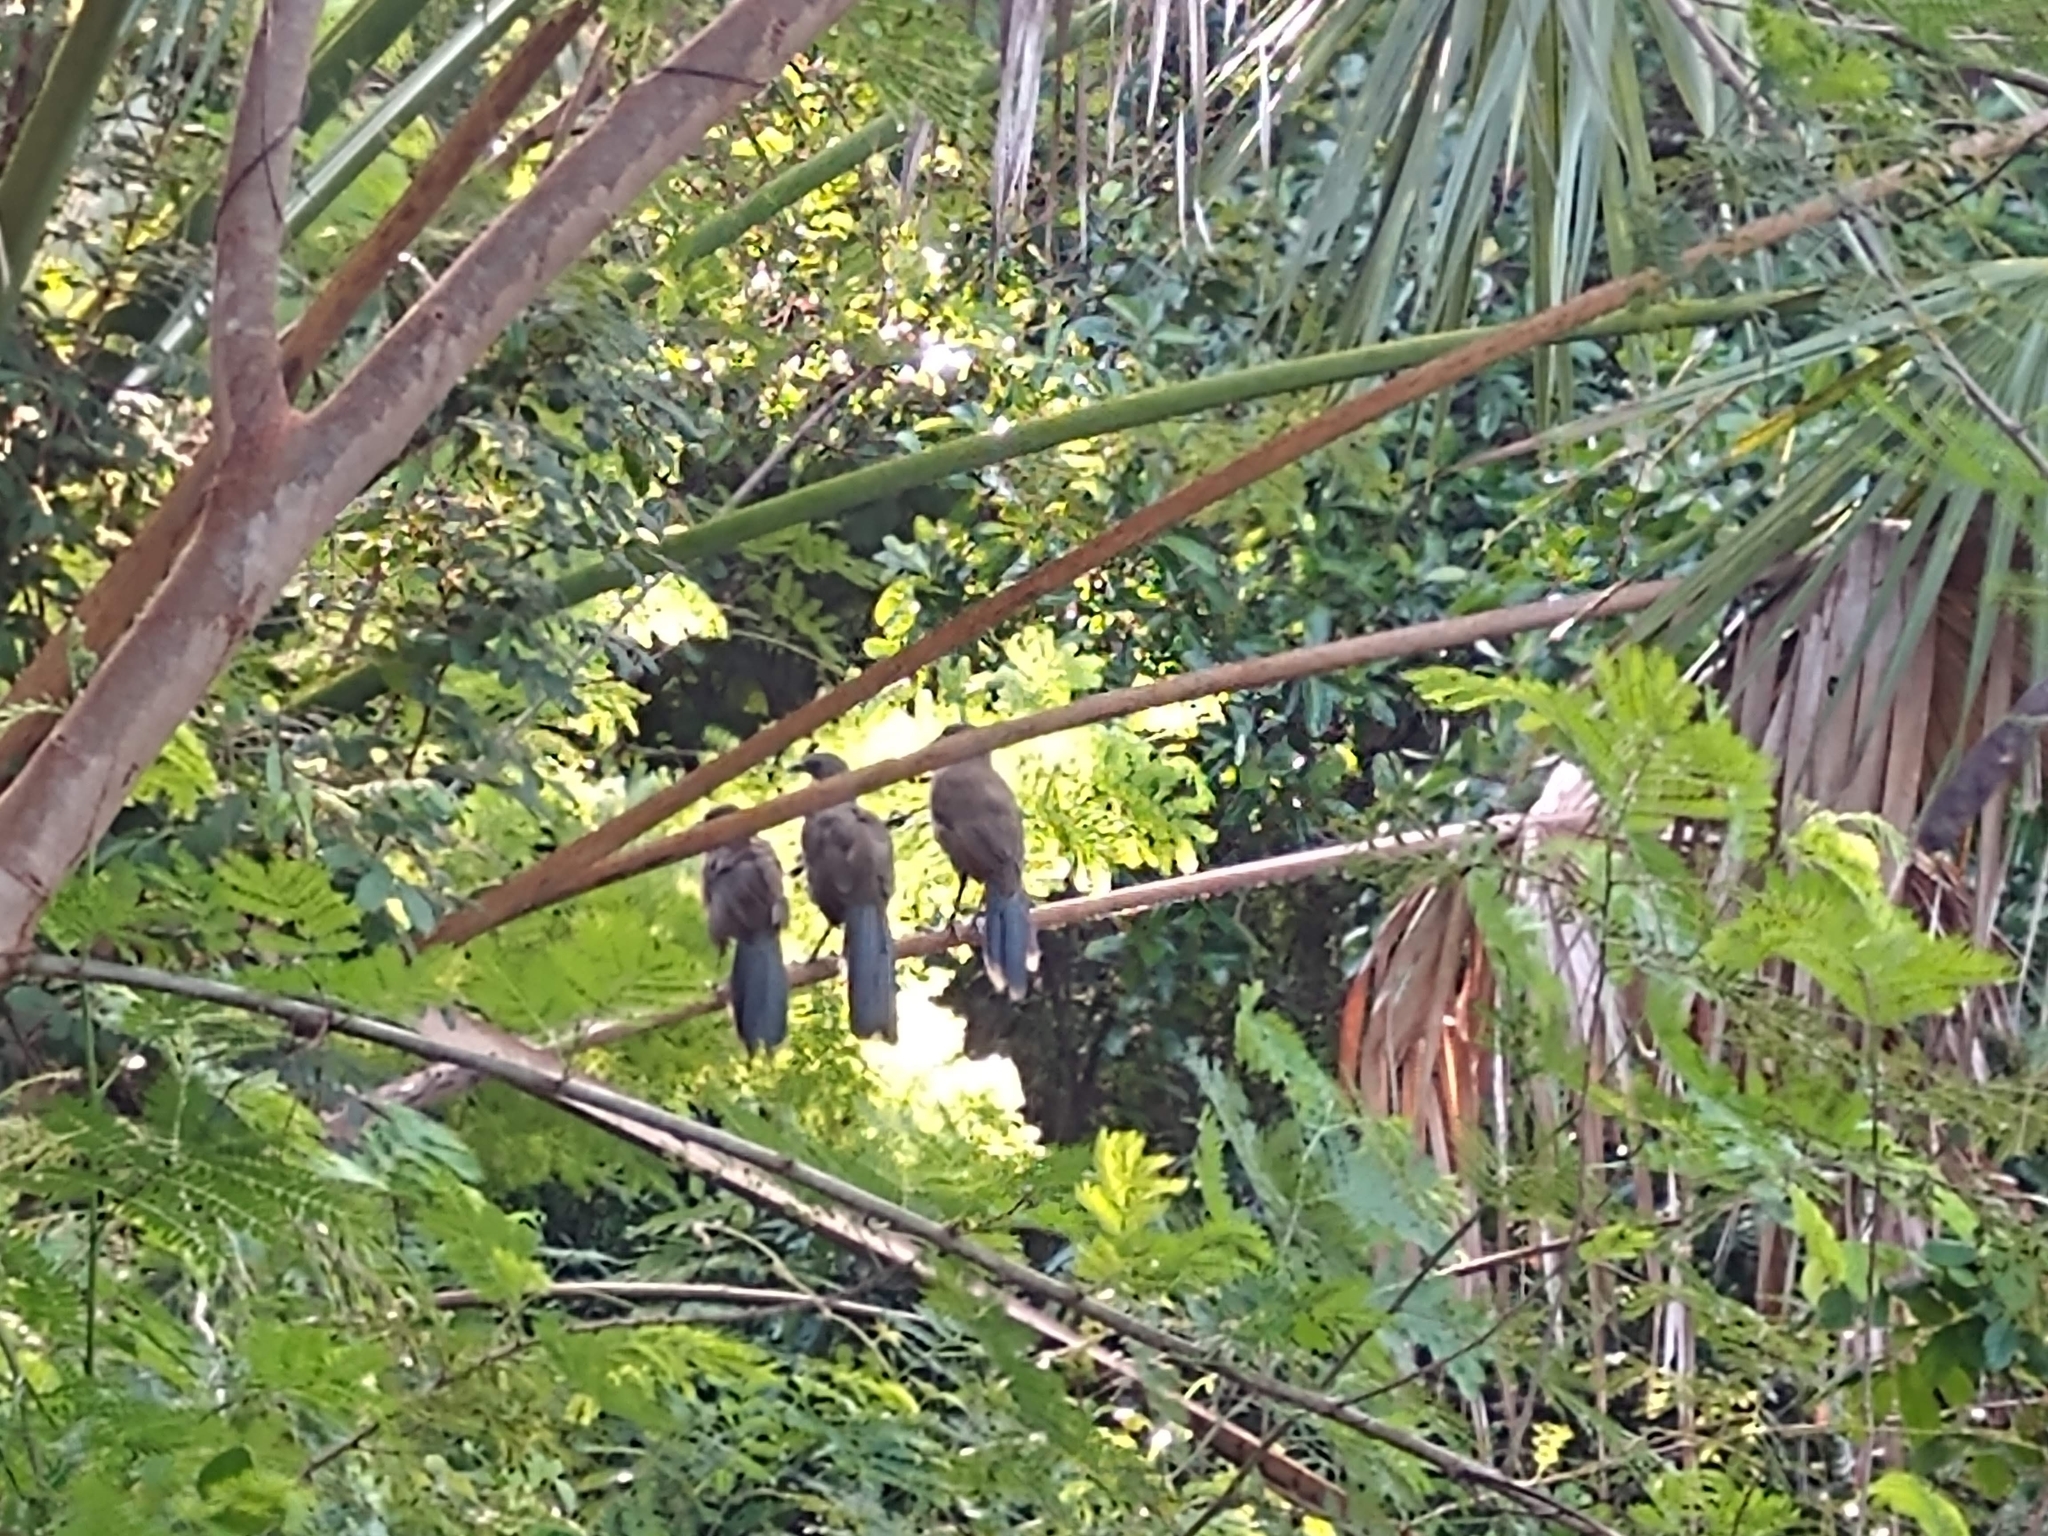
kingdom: Animalia
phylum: Chordata
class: Aves
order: Galliformes
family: Cracidae
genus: Ortalis
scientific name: Ortalis vetula
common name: Plain chachalaca
